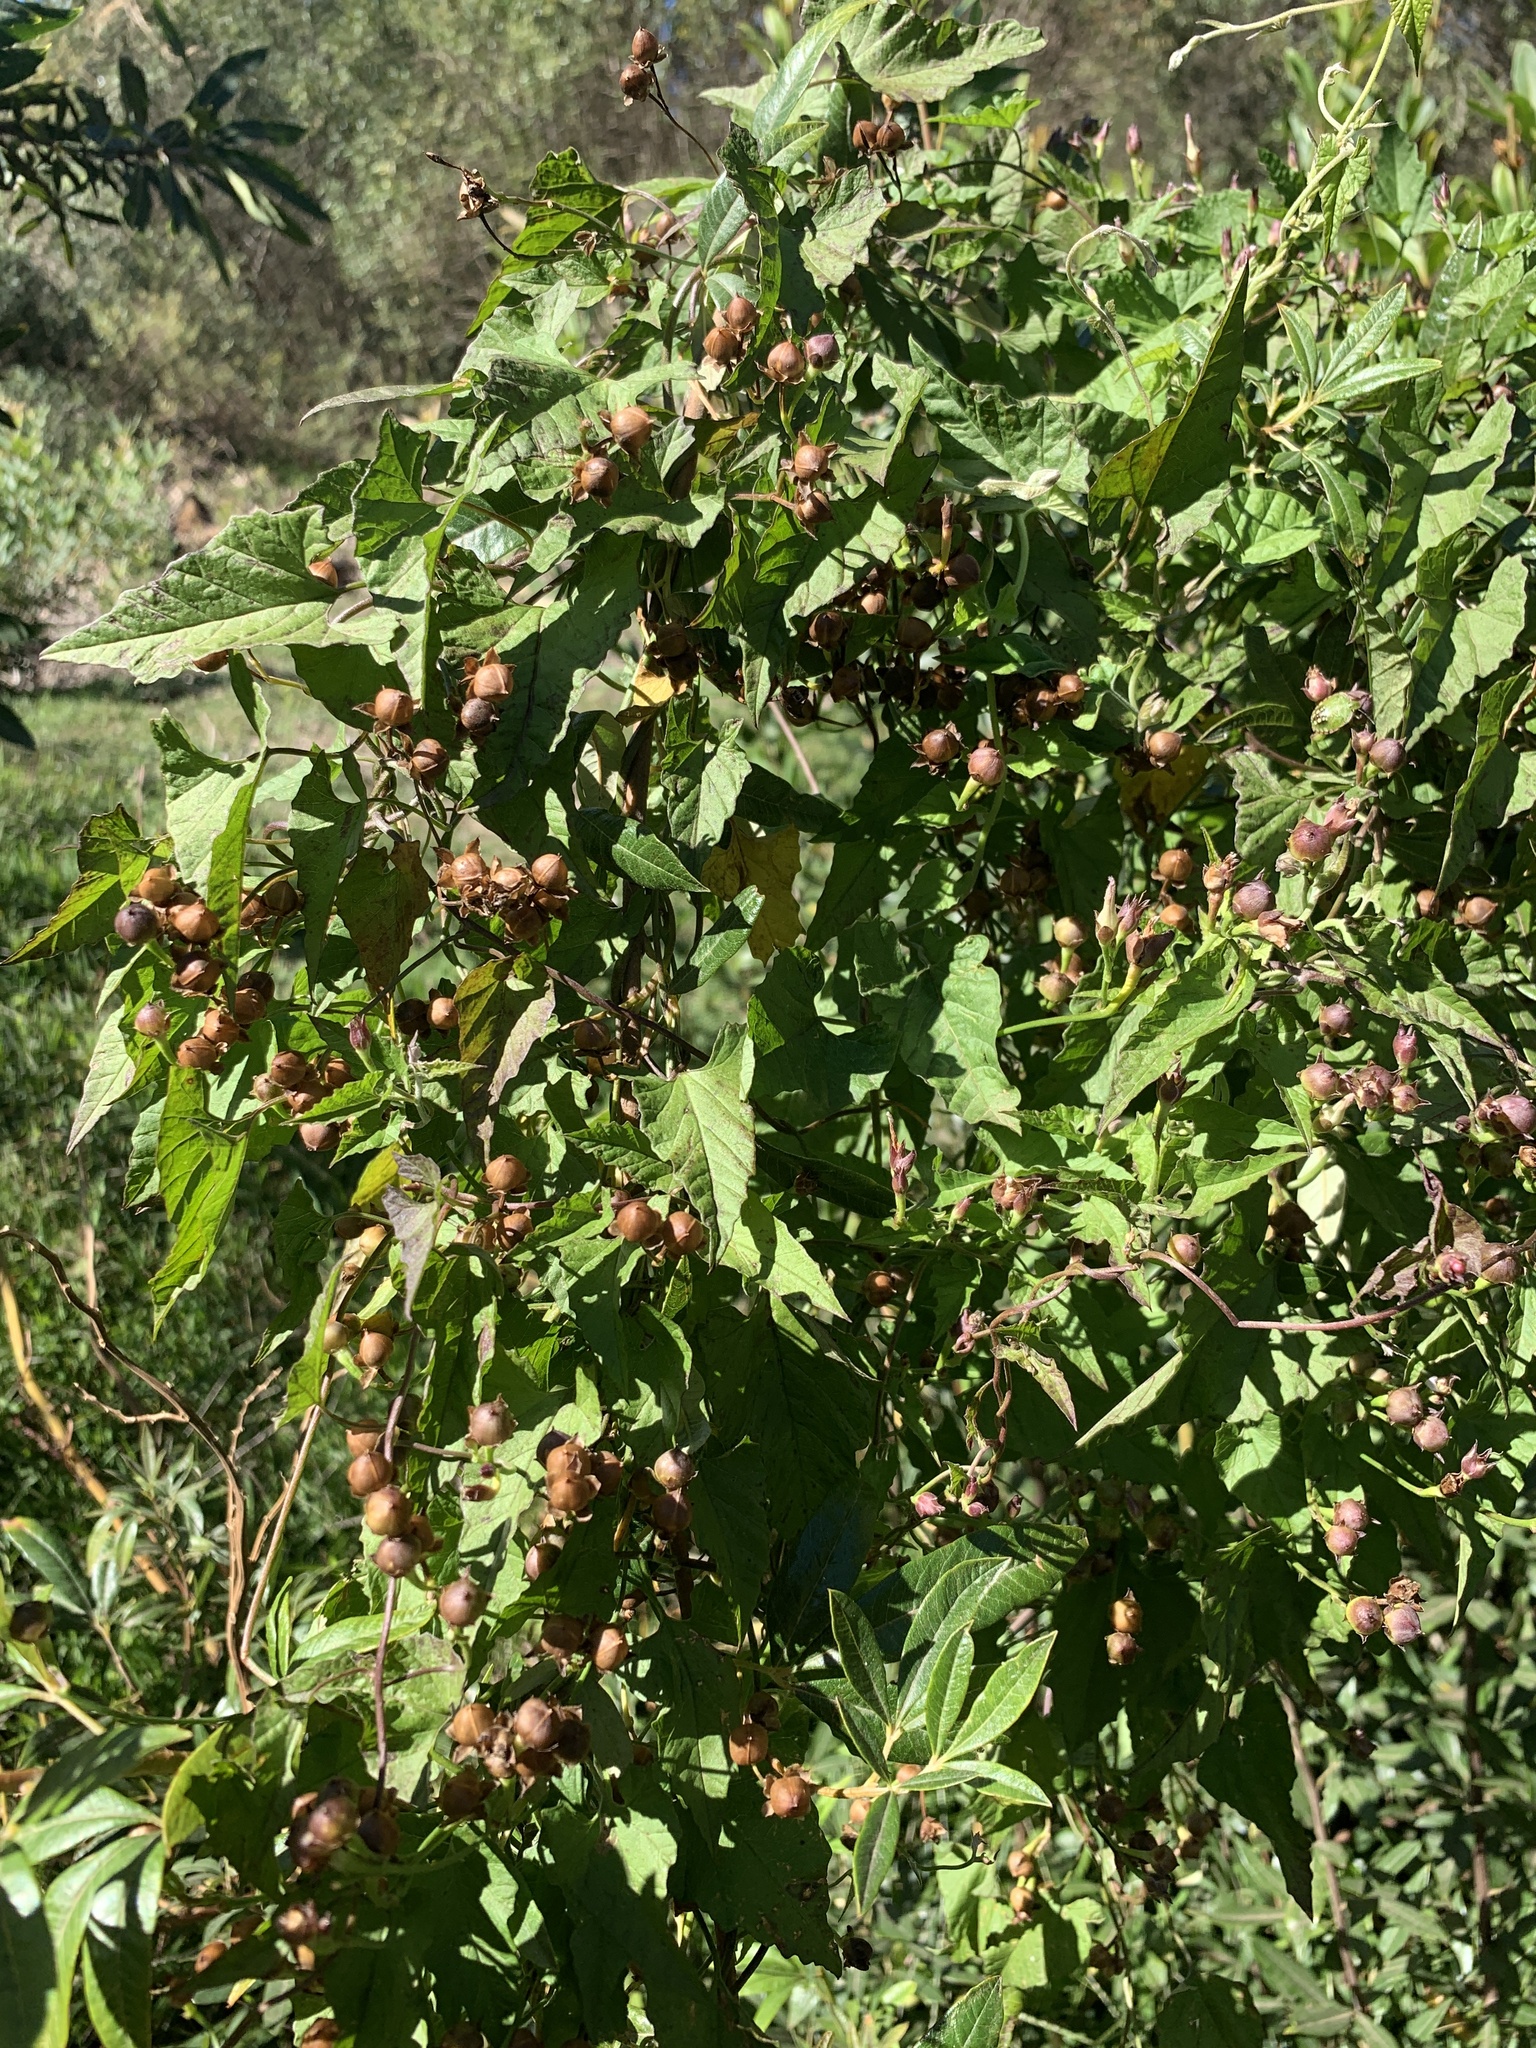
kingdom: Plantae
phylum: Tracheophyta
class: Magnoliopsida
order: Solanales
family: Convolvulaceae
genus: Convolvulus
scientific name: Convolvulus farinosus
